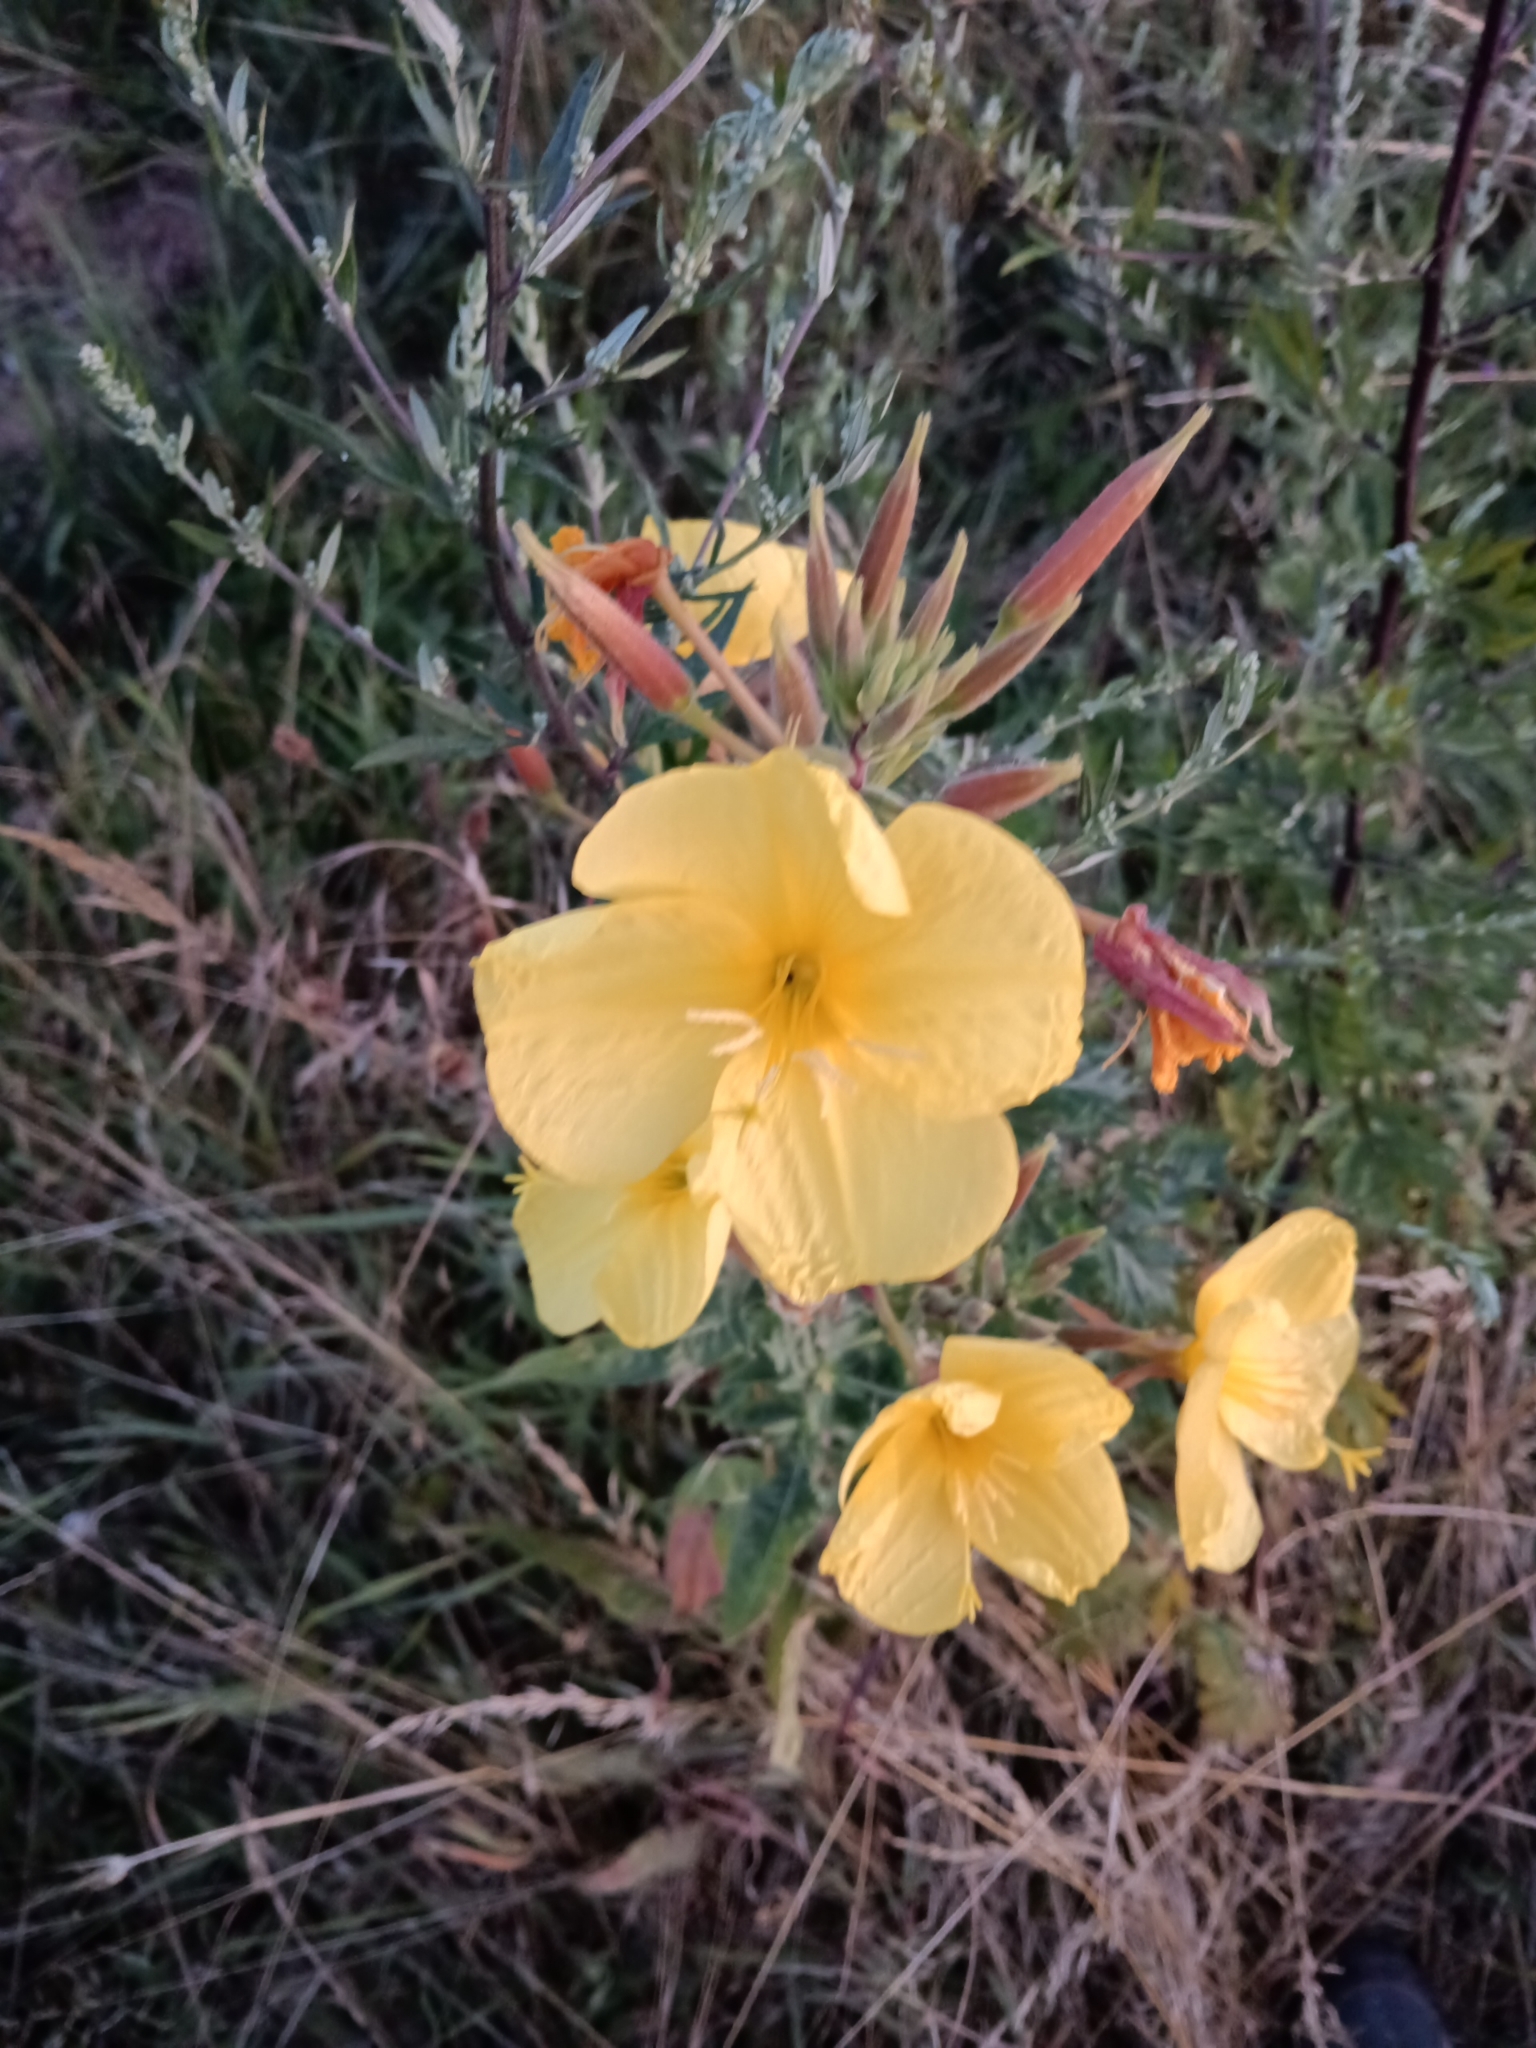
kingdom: Plantae
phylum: Tracheophyta
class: Magnoliopsida
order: Myrtales
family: Onagraceae
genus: Oenothera
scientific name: Oenothera glazioviana
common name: Large-flowered evening-primrose
